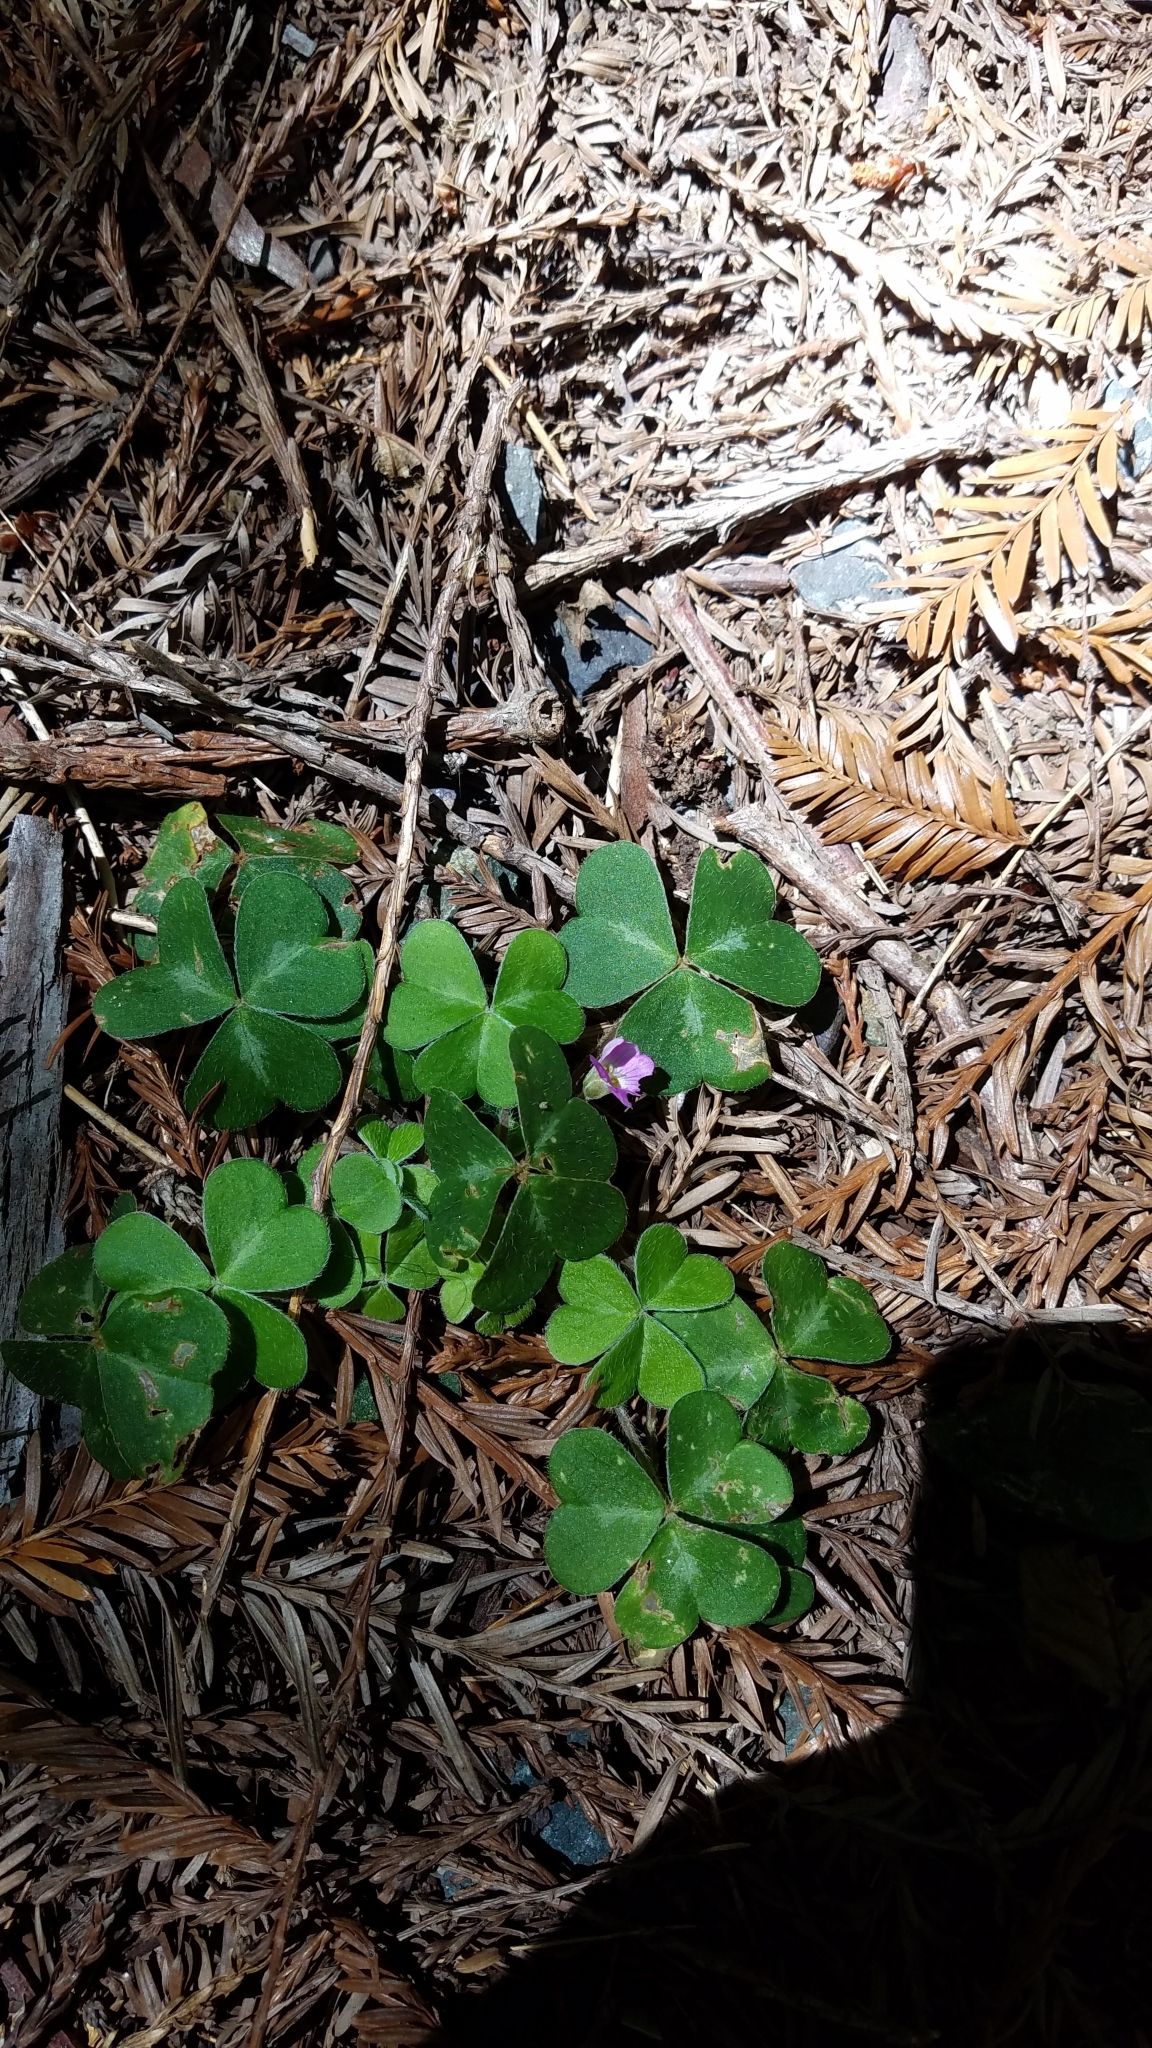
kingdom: Plantae
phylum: Tracheophyta
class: Magnoliopsida
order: Oxalidales
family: Oxalidaceae
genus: Oxalis
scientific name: Oxalis oregana
